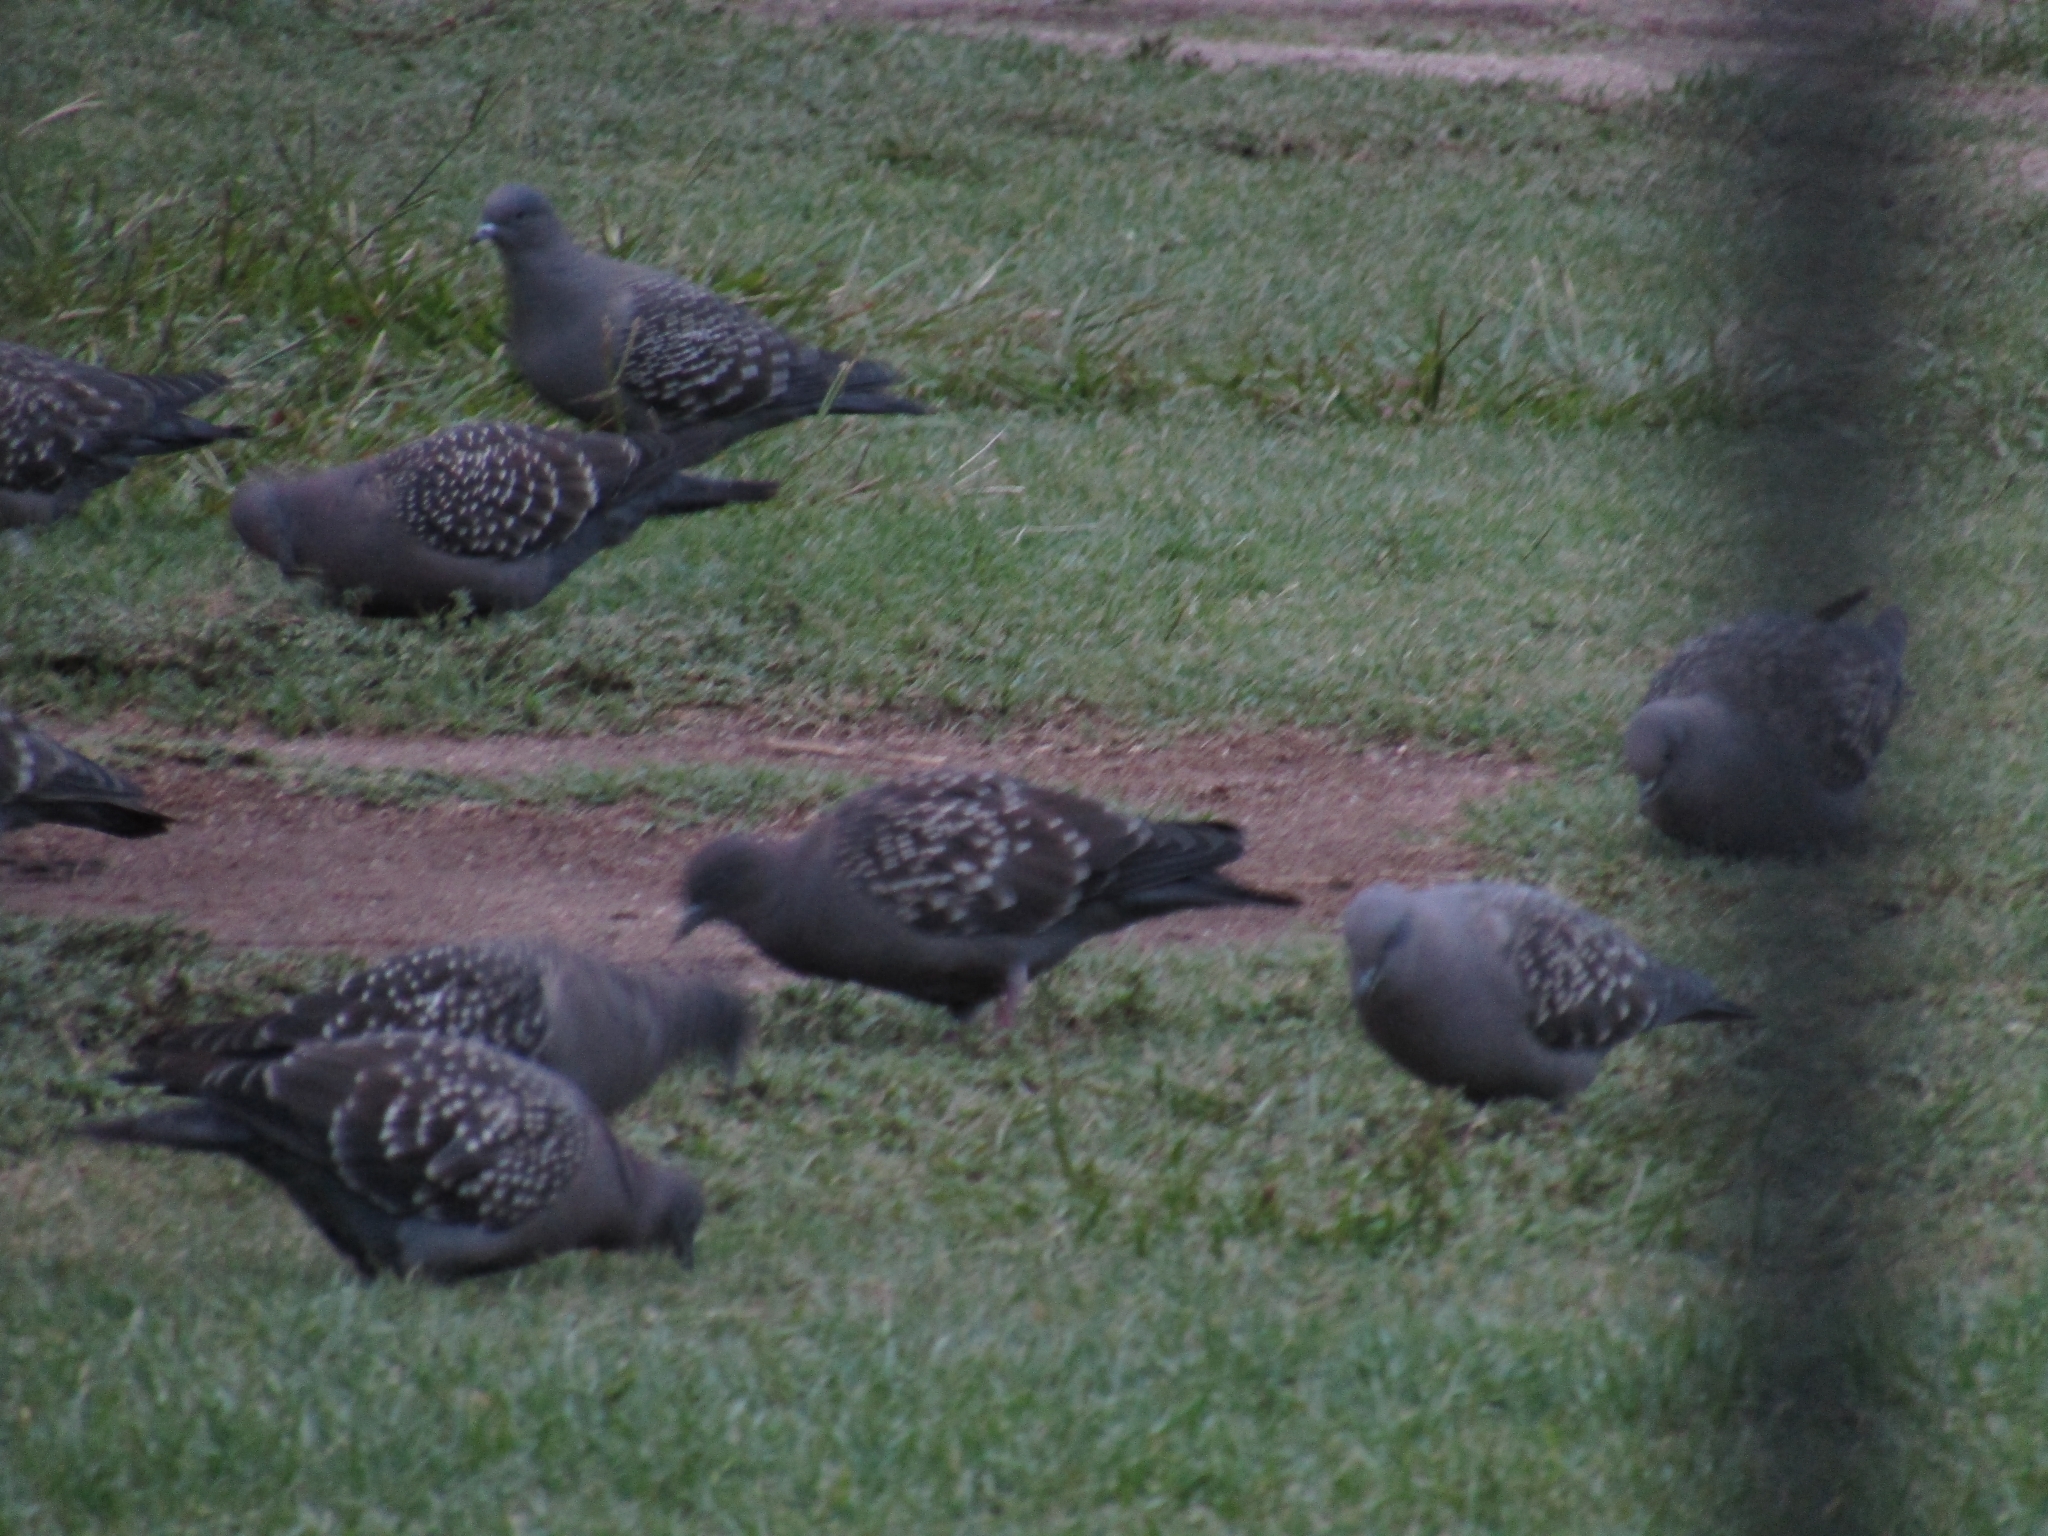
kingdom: Animalia
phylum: Chordata
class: Aves
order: Columbiformes
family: Columbidae
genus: Patagioenas
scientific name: Patagioenas maculosa
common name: Spot-winged pigeon
